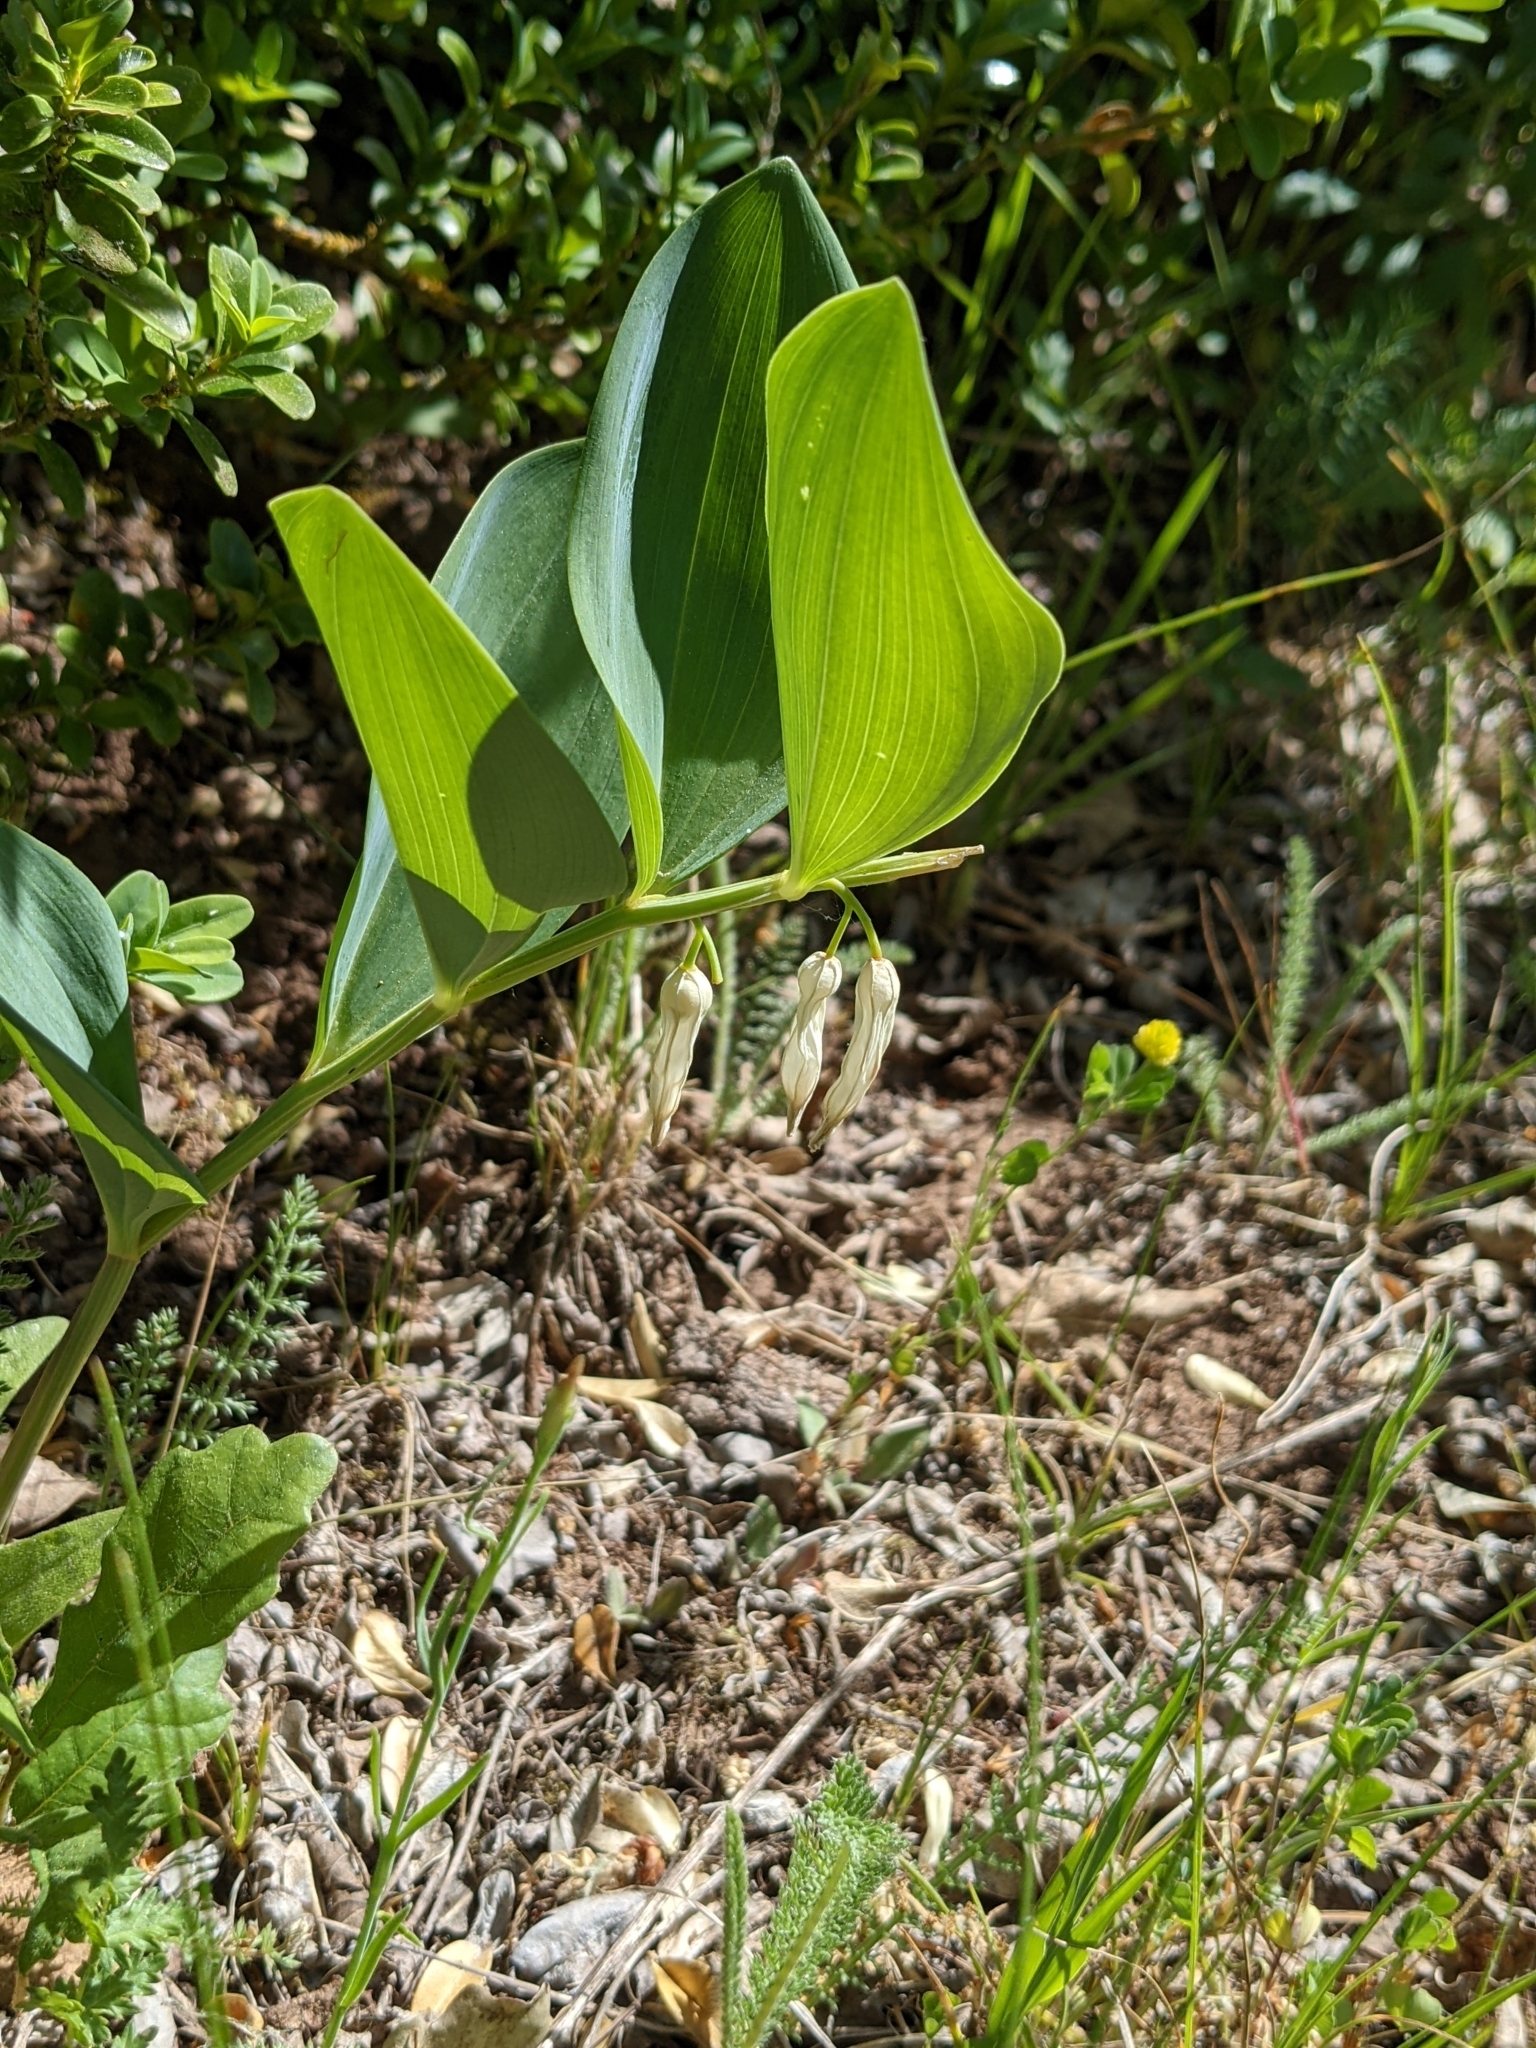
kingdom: Plantae
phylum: Tracheophyta
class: Liliopsida
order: Asparagales
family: Asparagaceae
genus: Polygonatum
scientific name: Polygonatum odoratum
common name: Angular solomon's-seal
